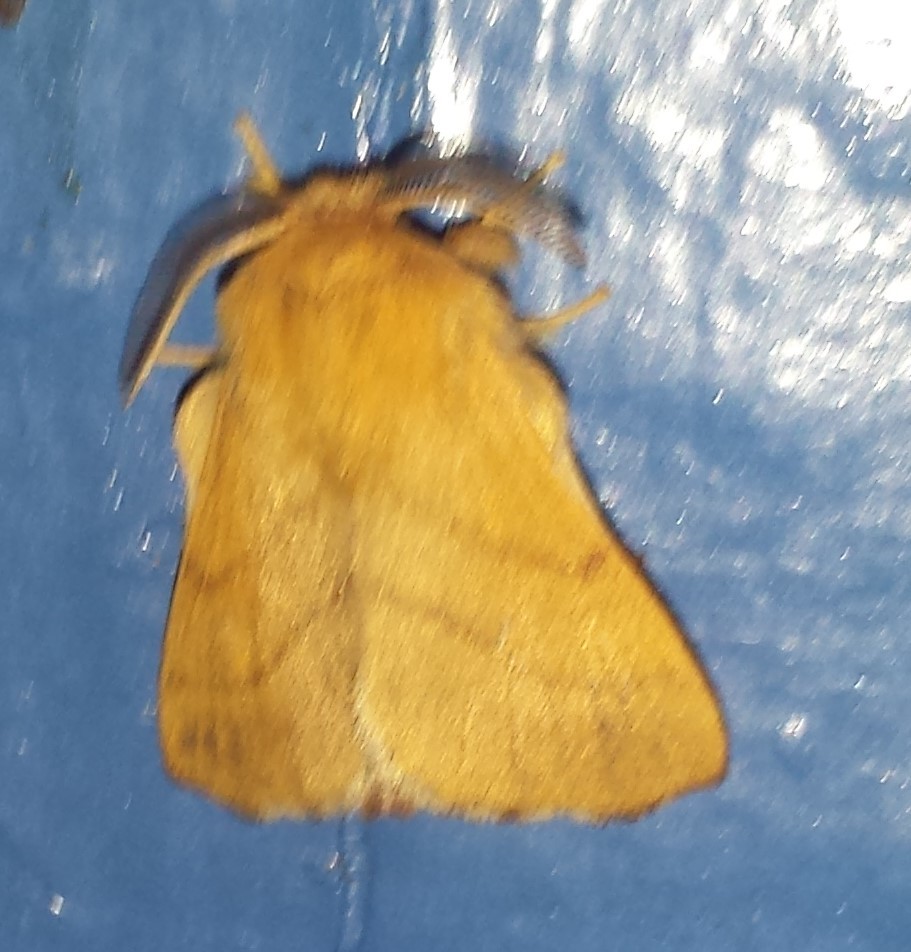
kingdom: Animalia
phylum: Arthropoda
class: Insecta
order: Lepidoptera
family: Lasiocampidae
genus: Malacosoma
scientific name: Malacosoma disstria
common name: Forest tent caterpillar
